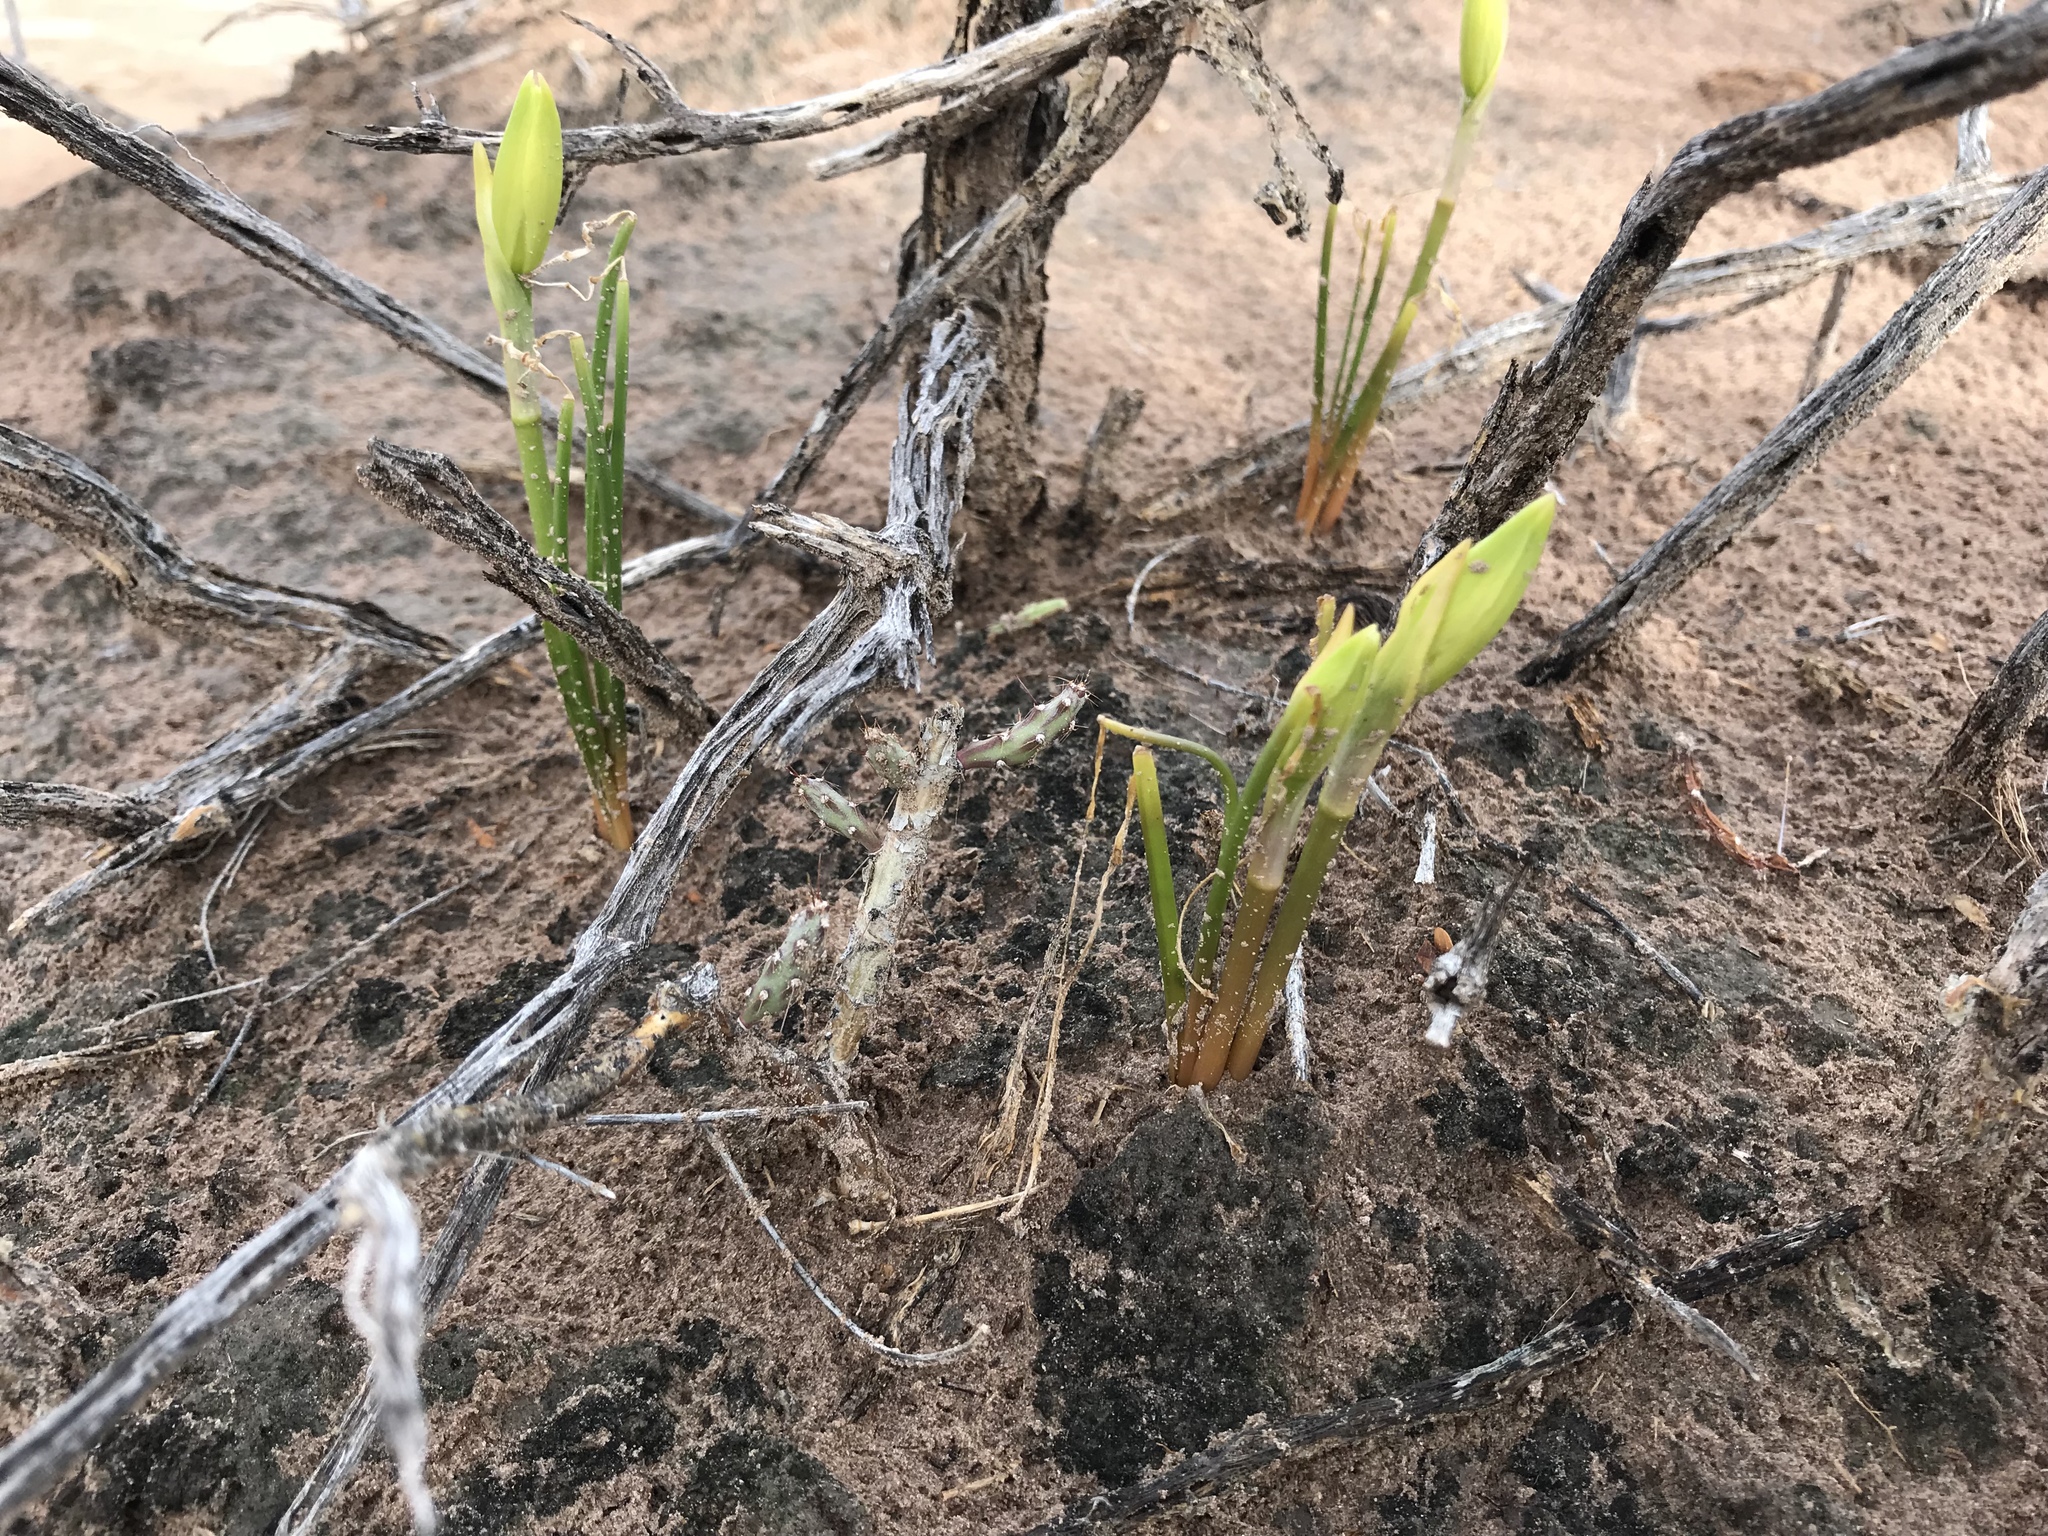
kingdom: Plantae
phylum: Tracheophyta
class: Liliopsida
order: Asparagales
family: Amaryllidaceae
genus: Zephyranthes
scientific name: Zephyranthes longifolia
